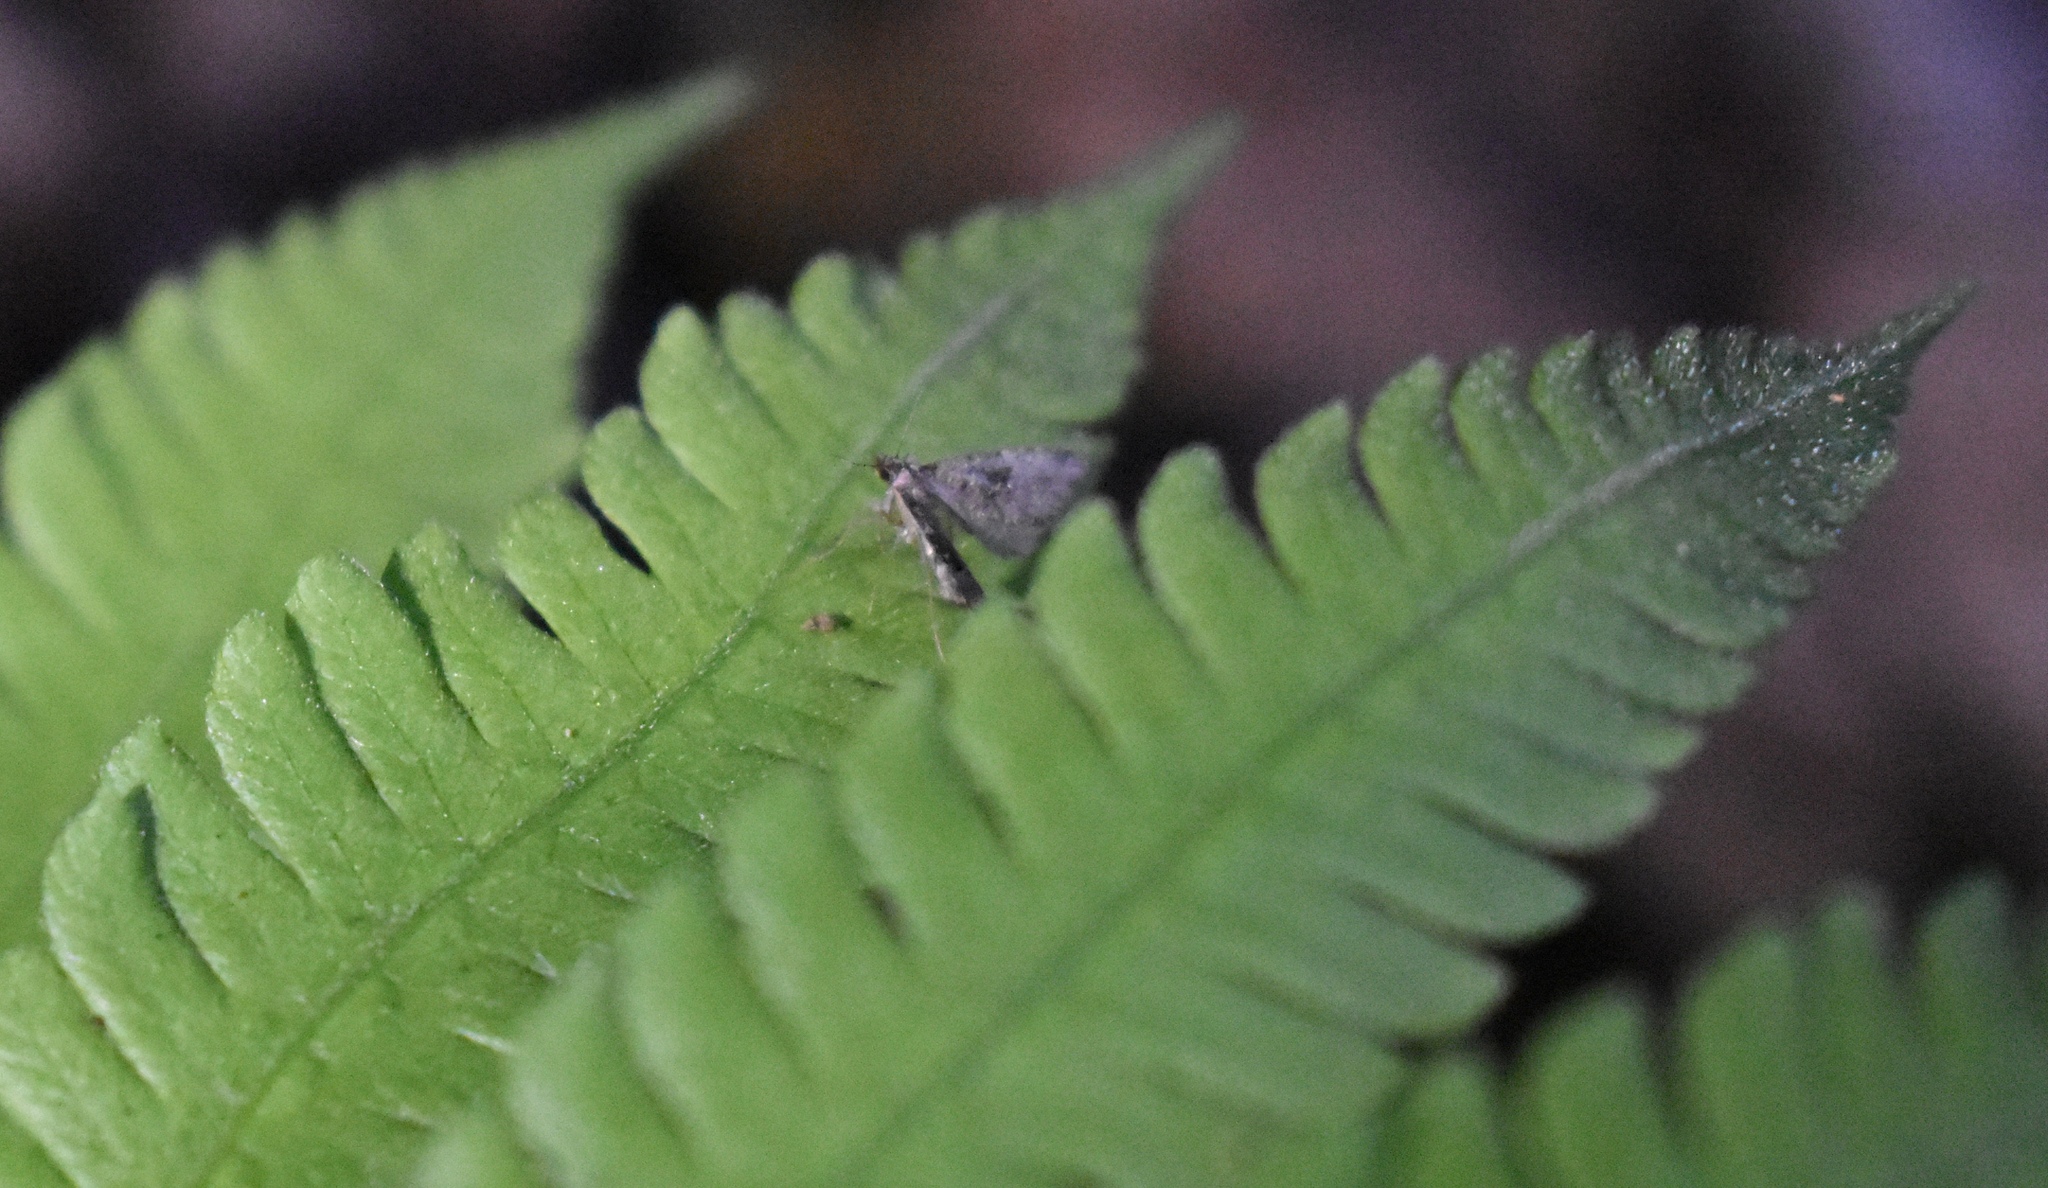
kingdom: Animalia
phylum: Arthropoda
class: Insecta
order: Lepidoptera
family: Erebidae
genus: Pseudoschrankia
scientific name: Pseudoschrankia brevipalpis
